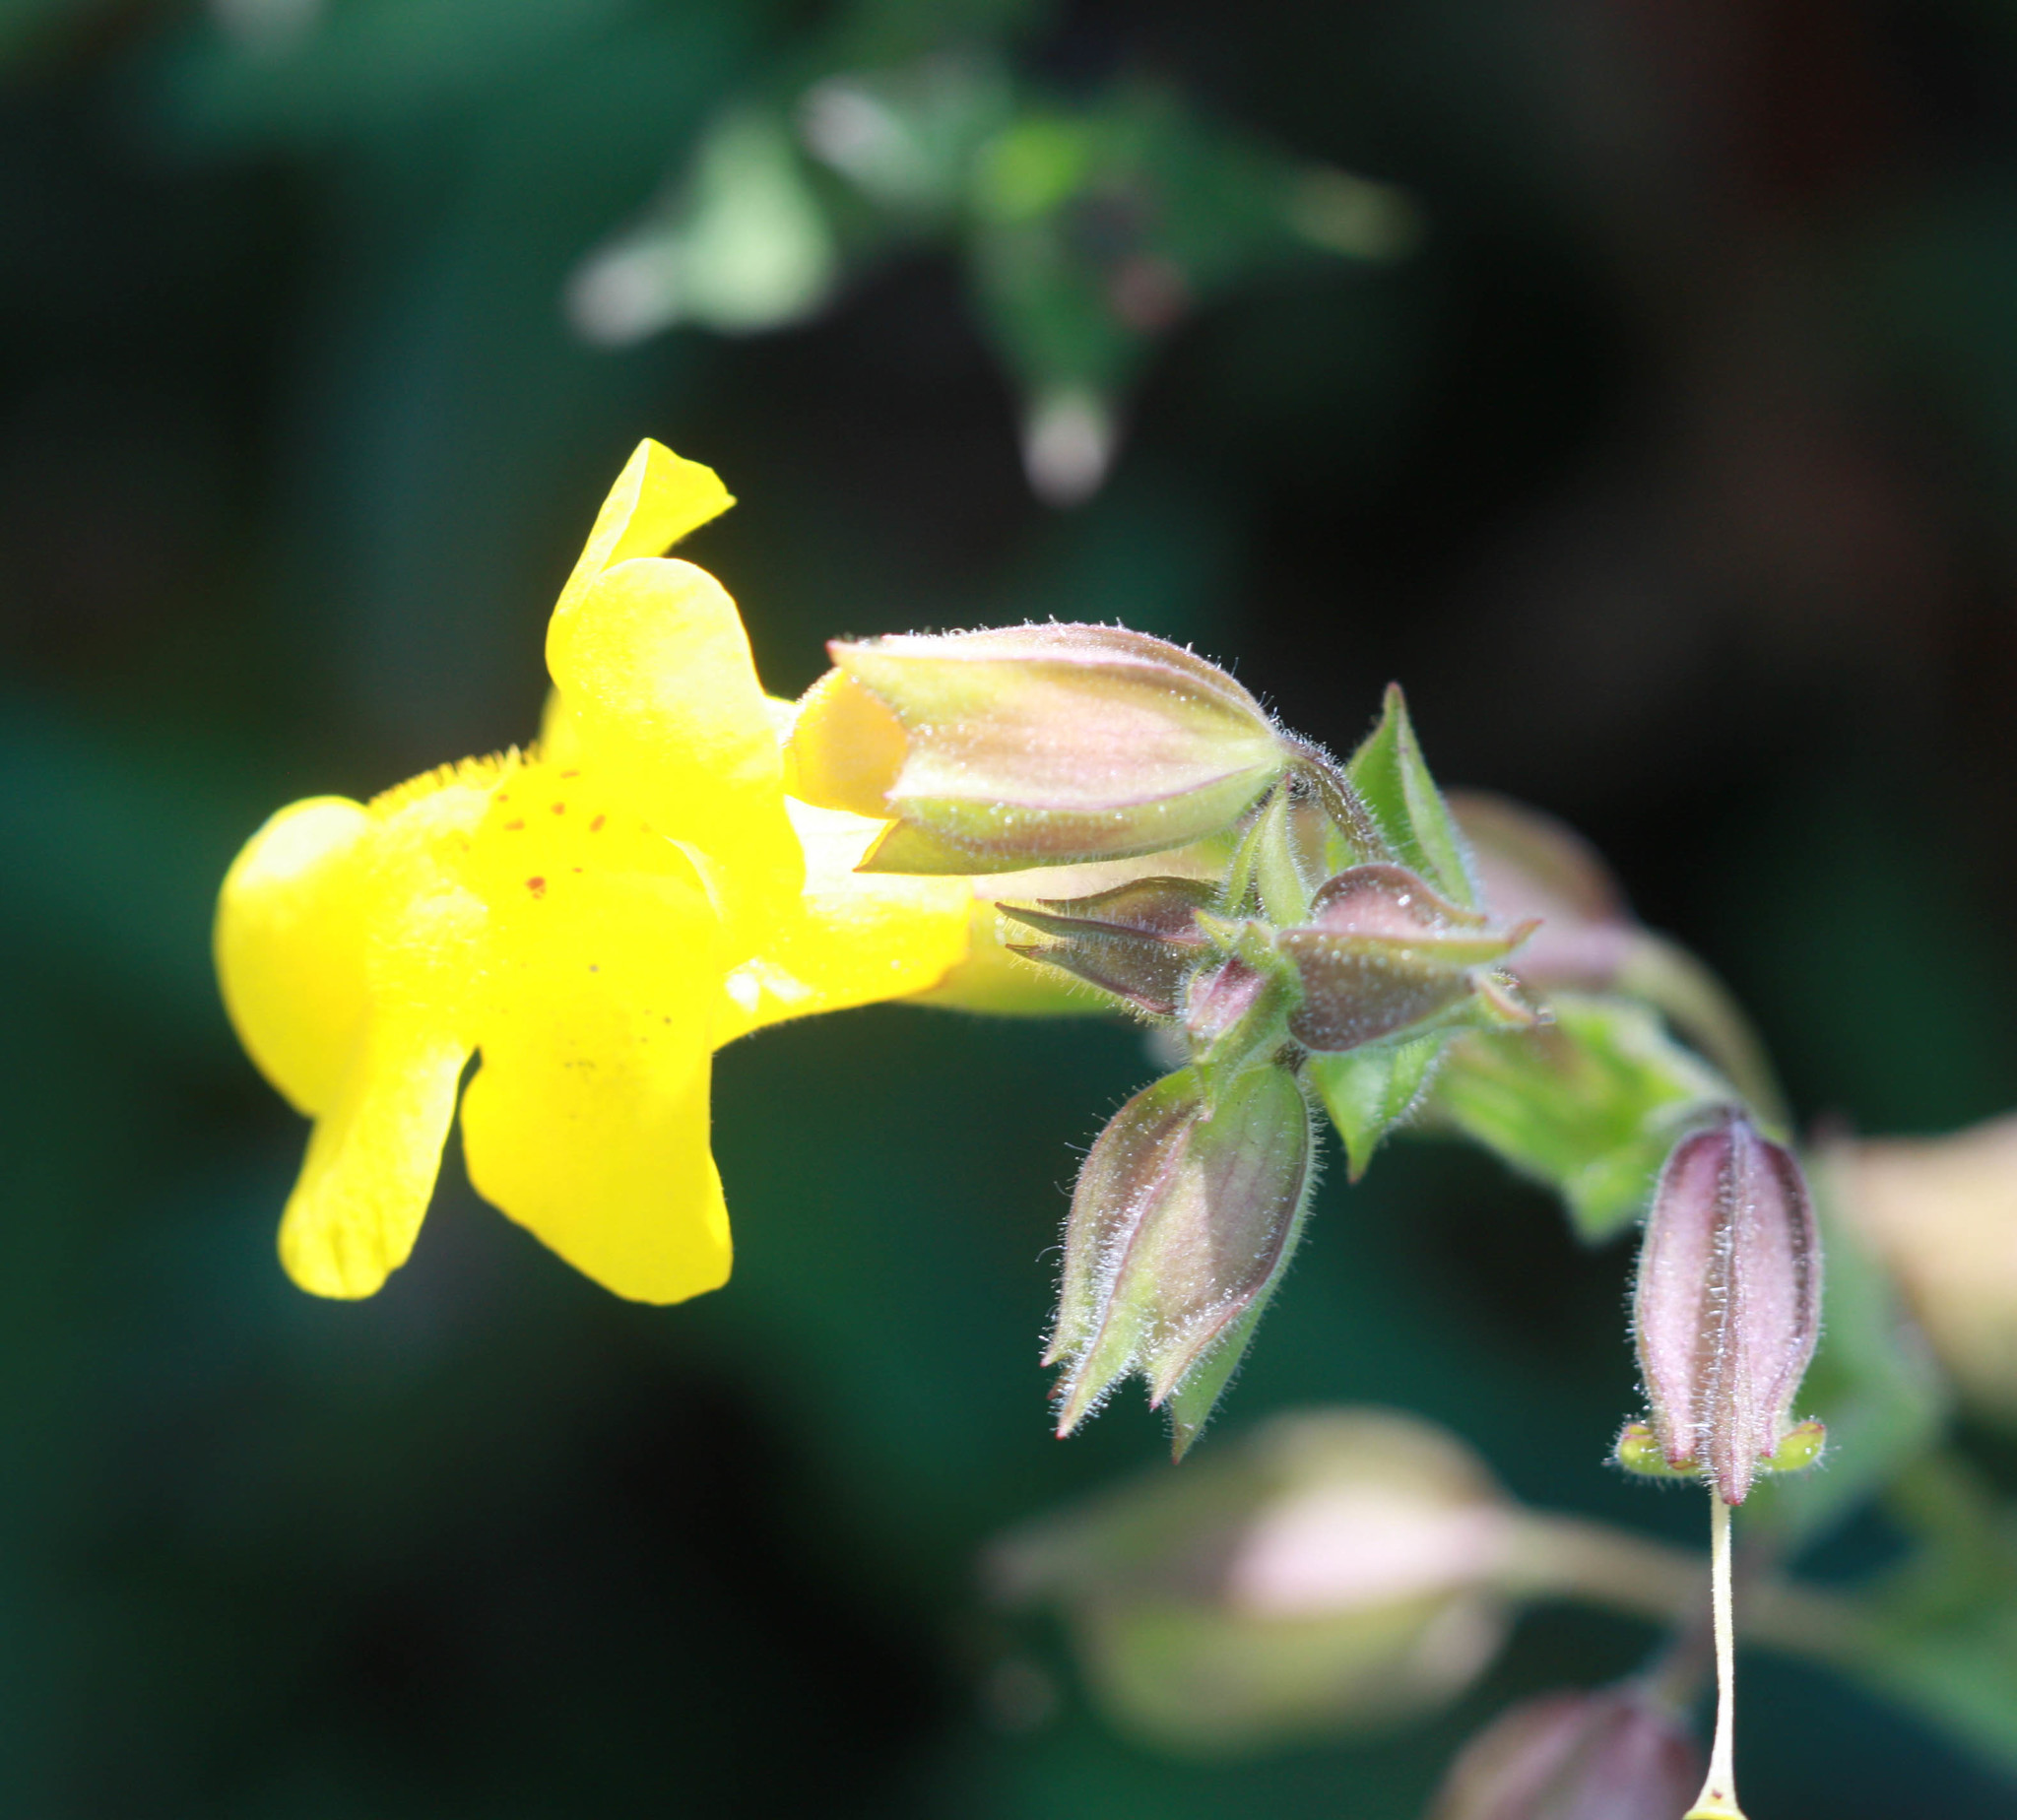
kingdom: Plantae
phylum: Tracheophyta
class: Magnoliopsida
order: Lamiales
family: Phrymaceae
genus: Erythranthe
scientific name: Erythranthe guttata
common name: Monkeyflower
